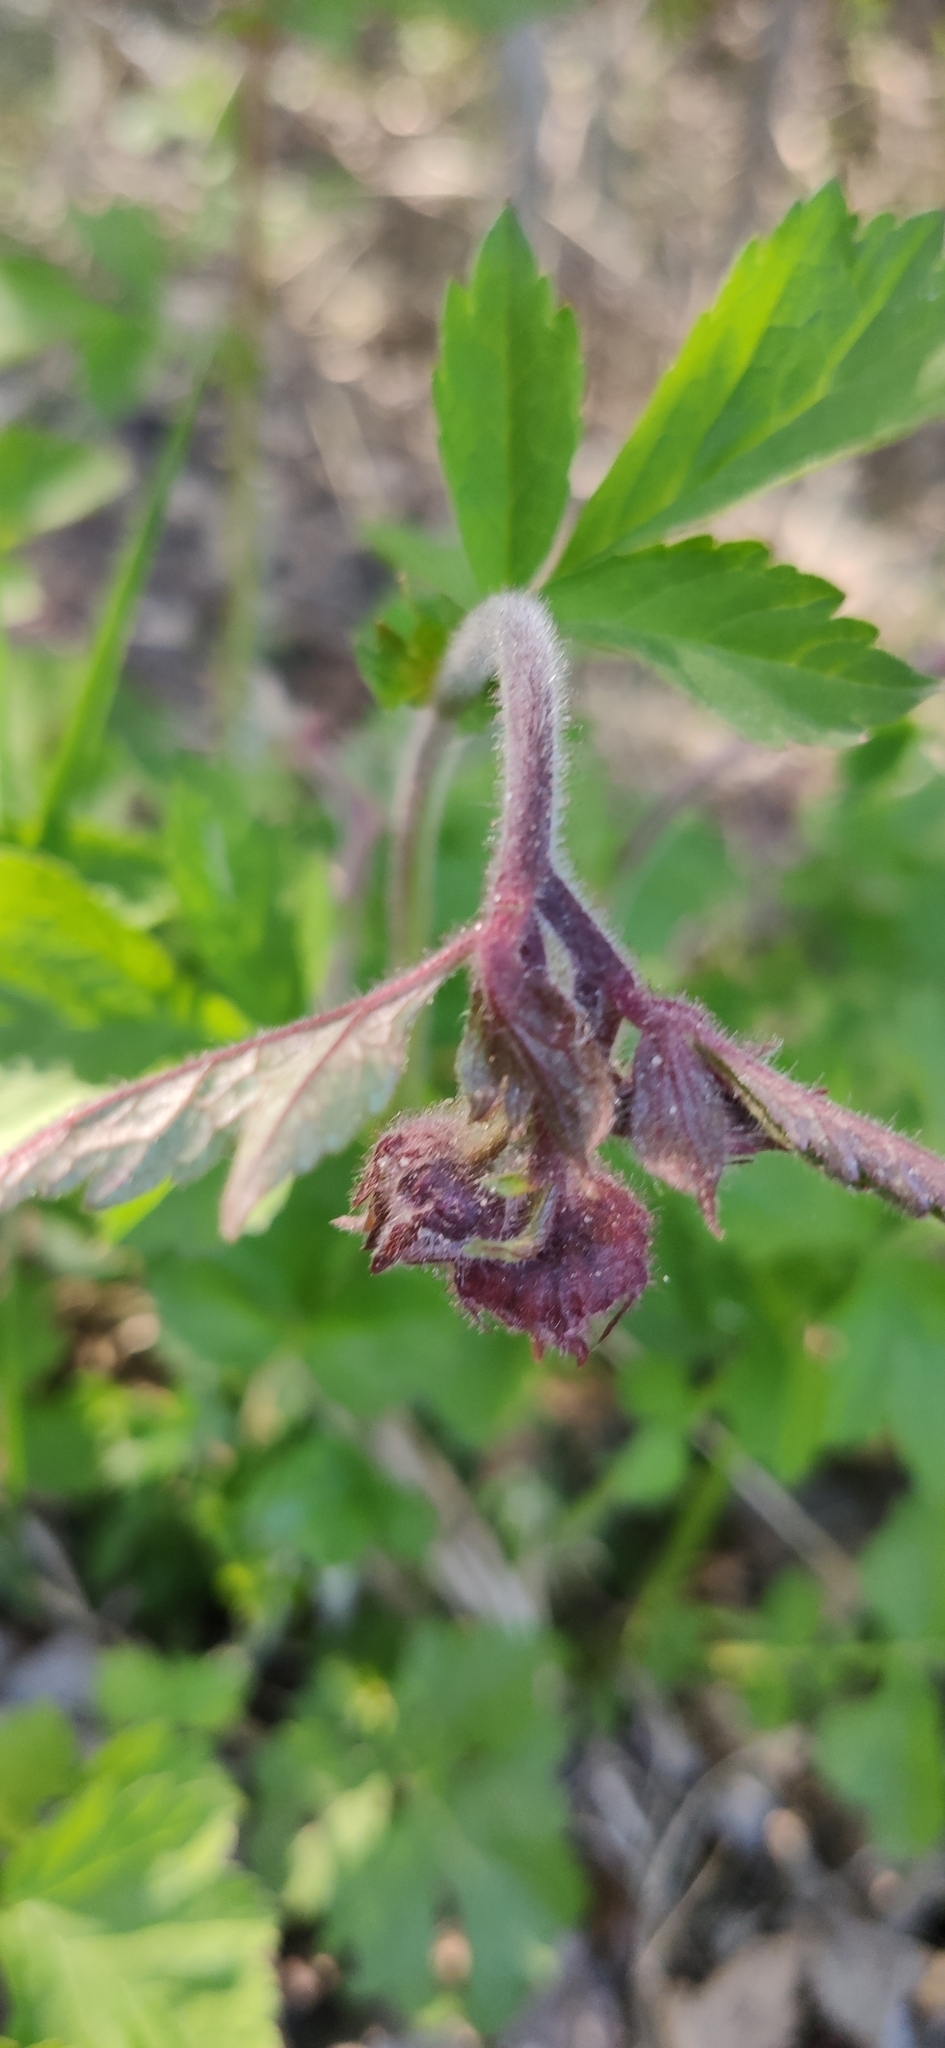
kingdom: Plantae
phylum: Tracheophyta
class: Magnoliopsida
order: Rosales
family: Rosaceae
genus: Geum
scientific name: Geum rivale
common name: Water avens
